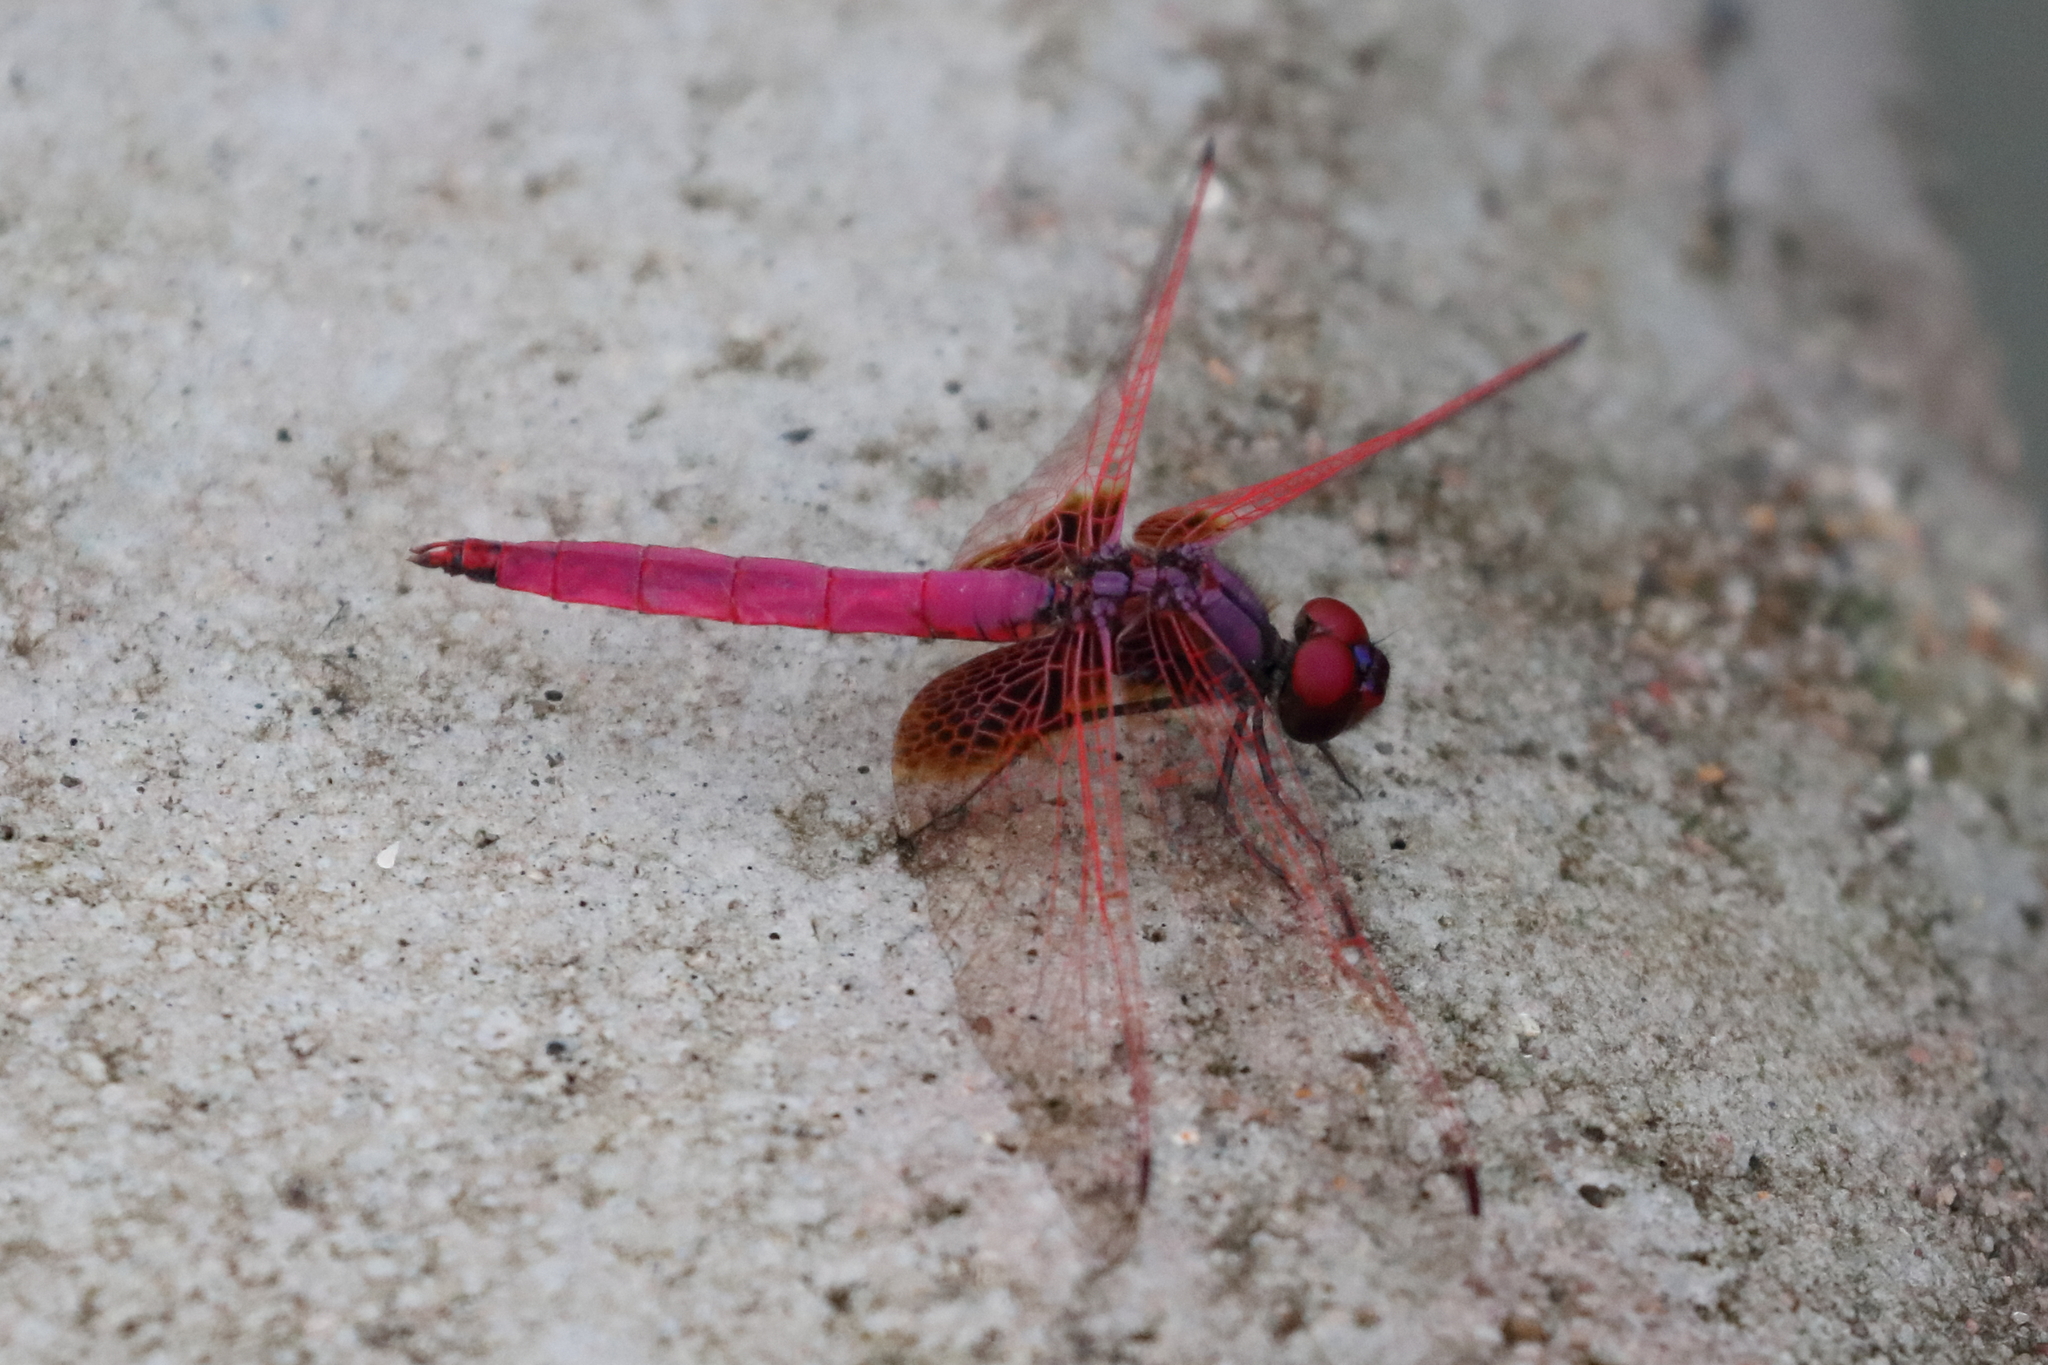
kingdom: Animalia
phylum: Arthropoda
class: Insecta
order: Odonata
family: Libellulidae
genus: Trithemis
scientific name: Trithemis aurora
